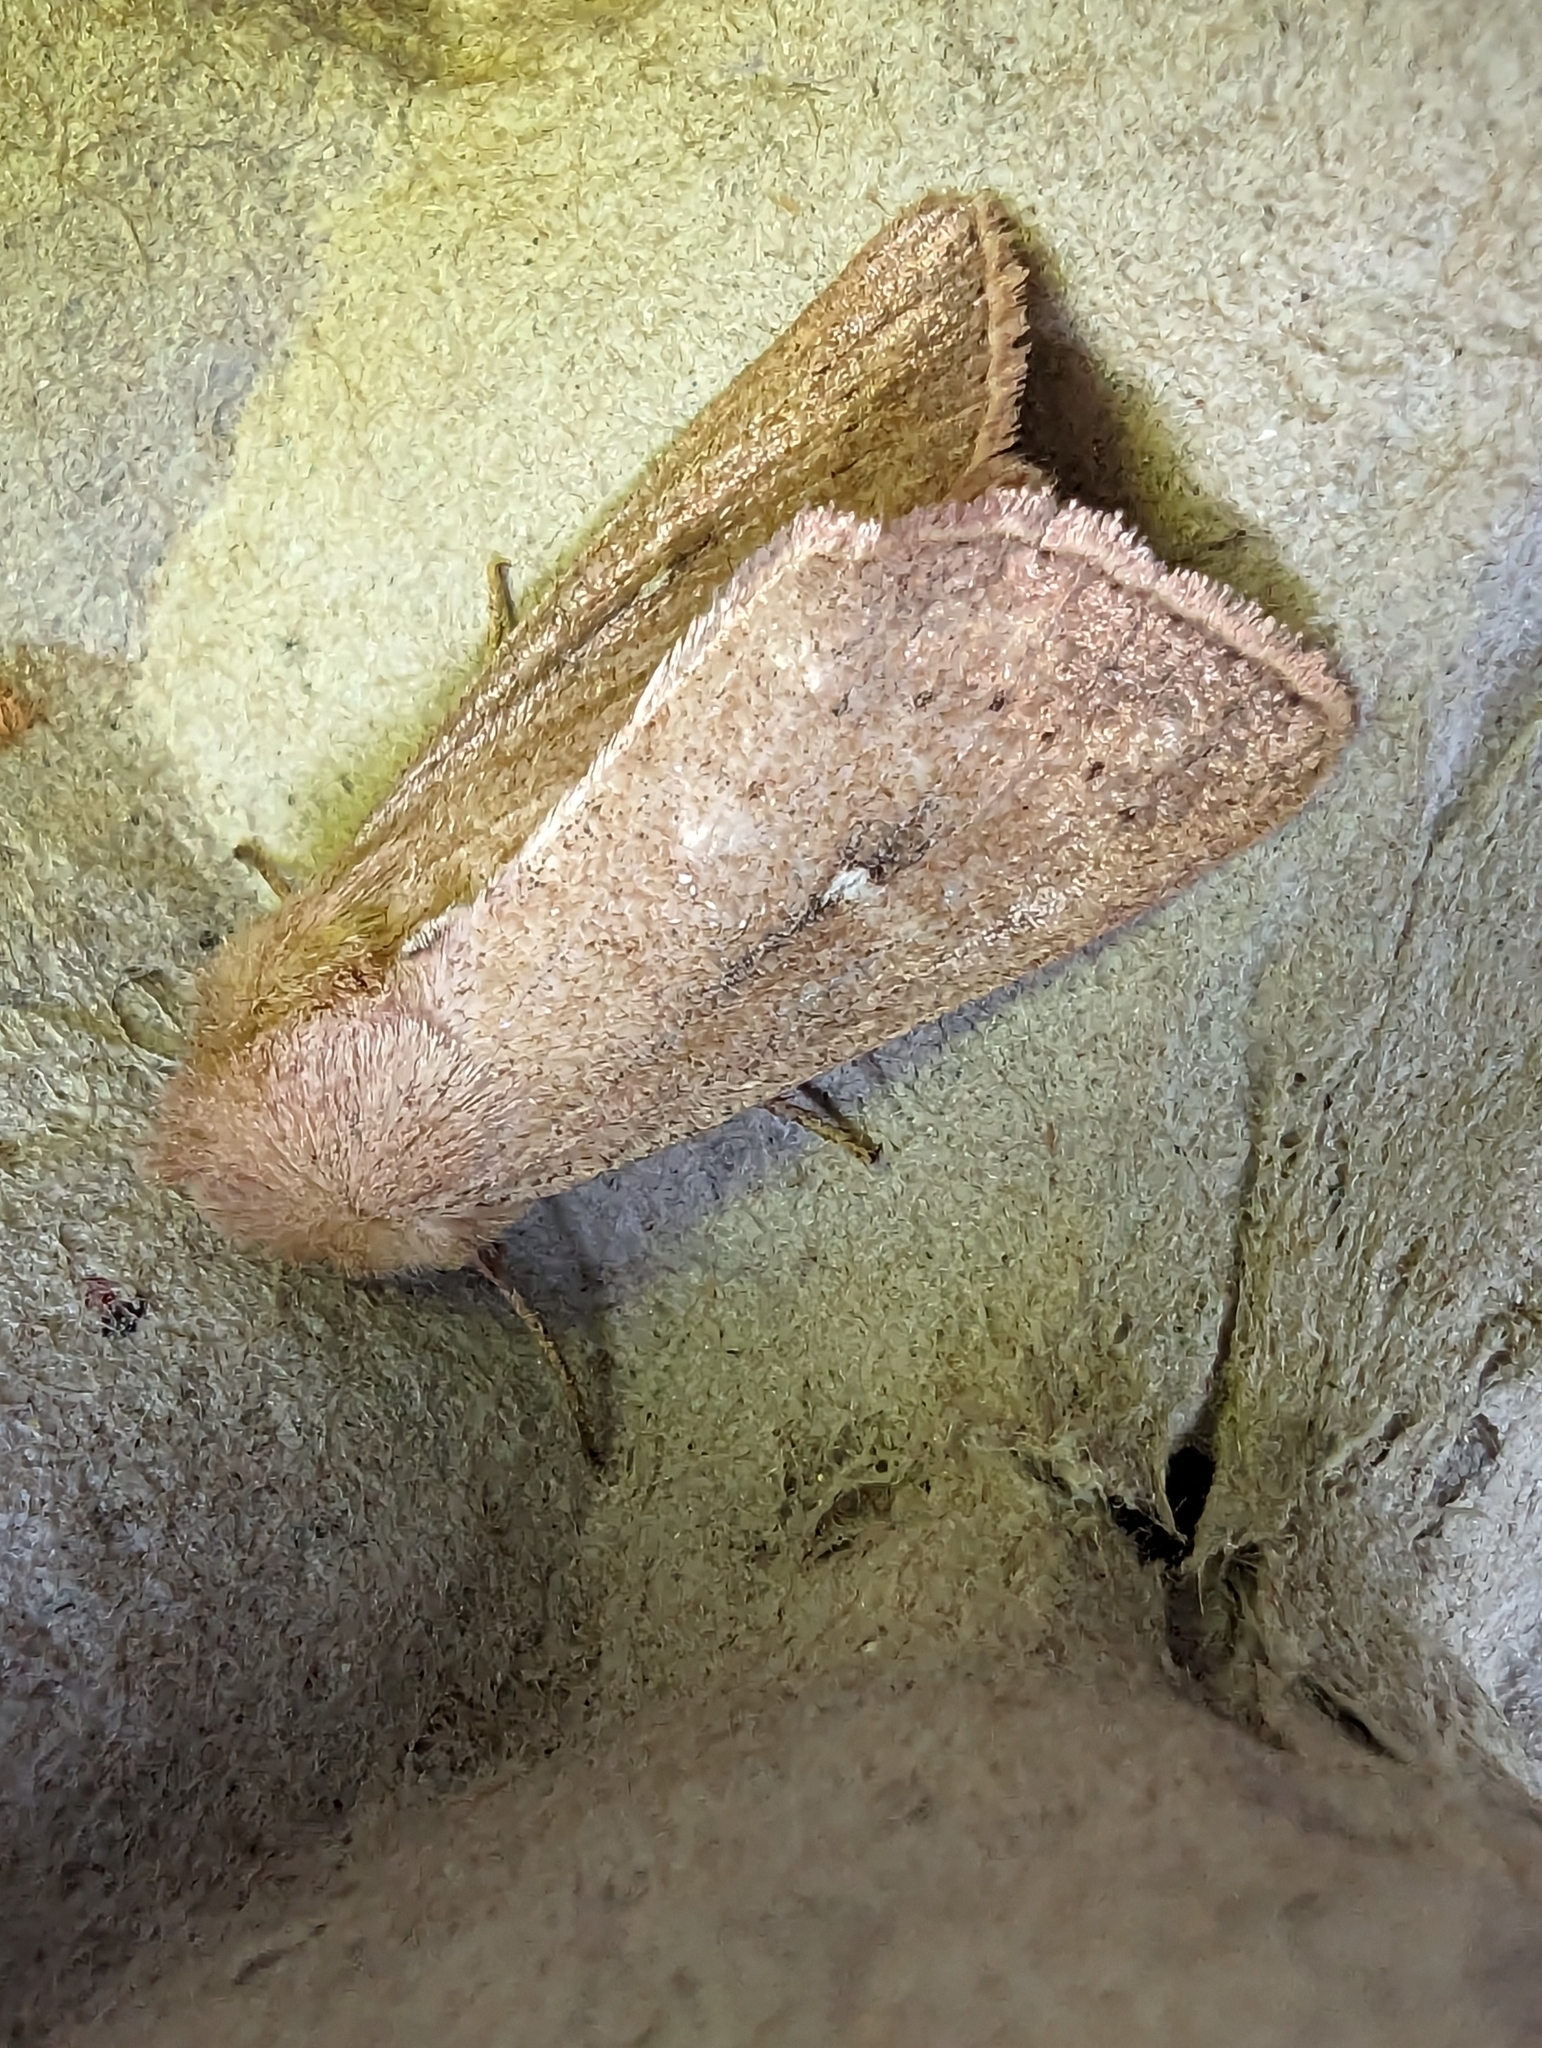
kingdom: Animalia
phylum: Arthropoda
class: Insecta
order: Lepidoptera
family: Noctuidae
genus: Mythimna
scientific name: Mythimna ferrago
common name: Clay
